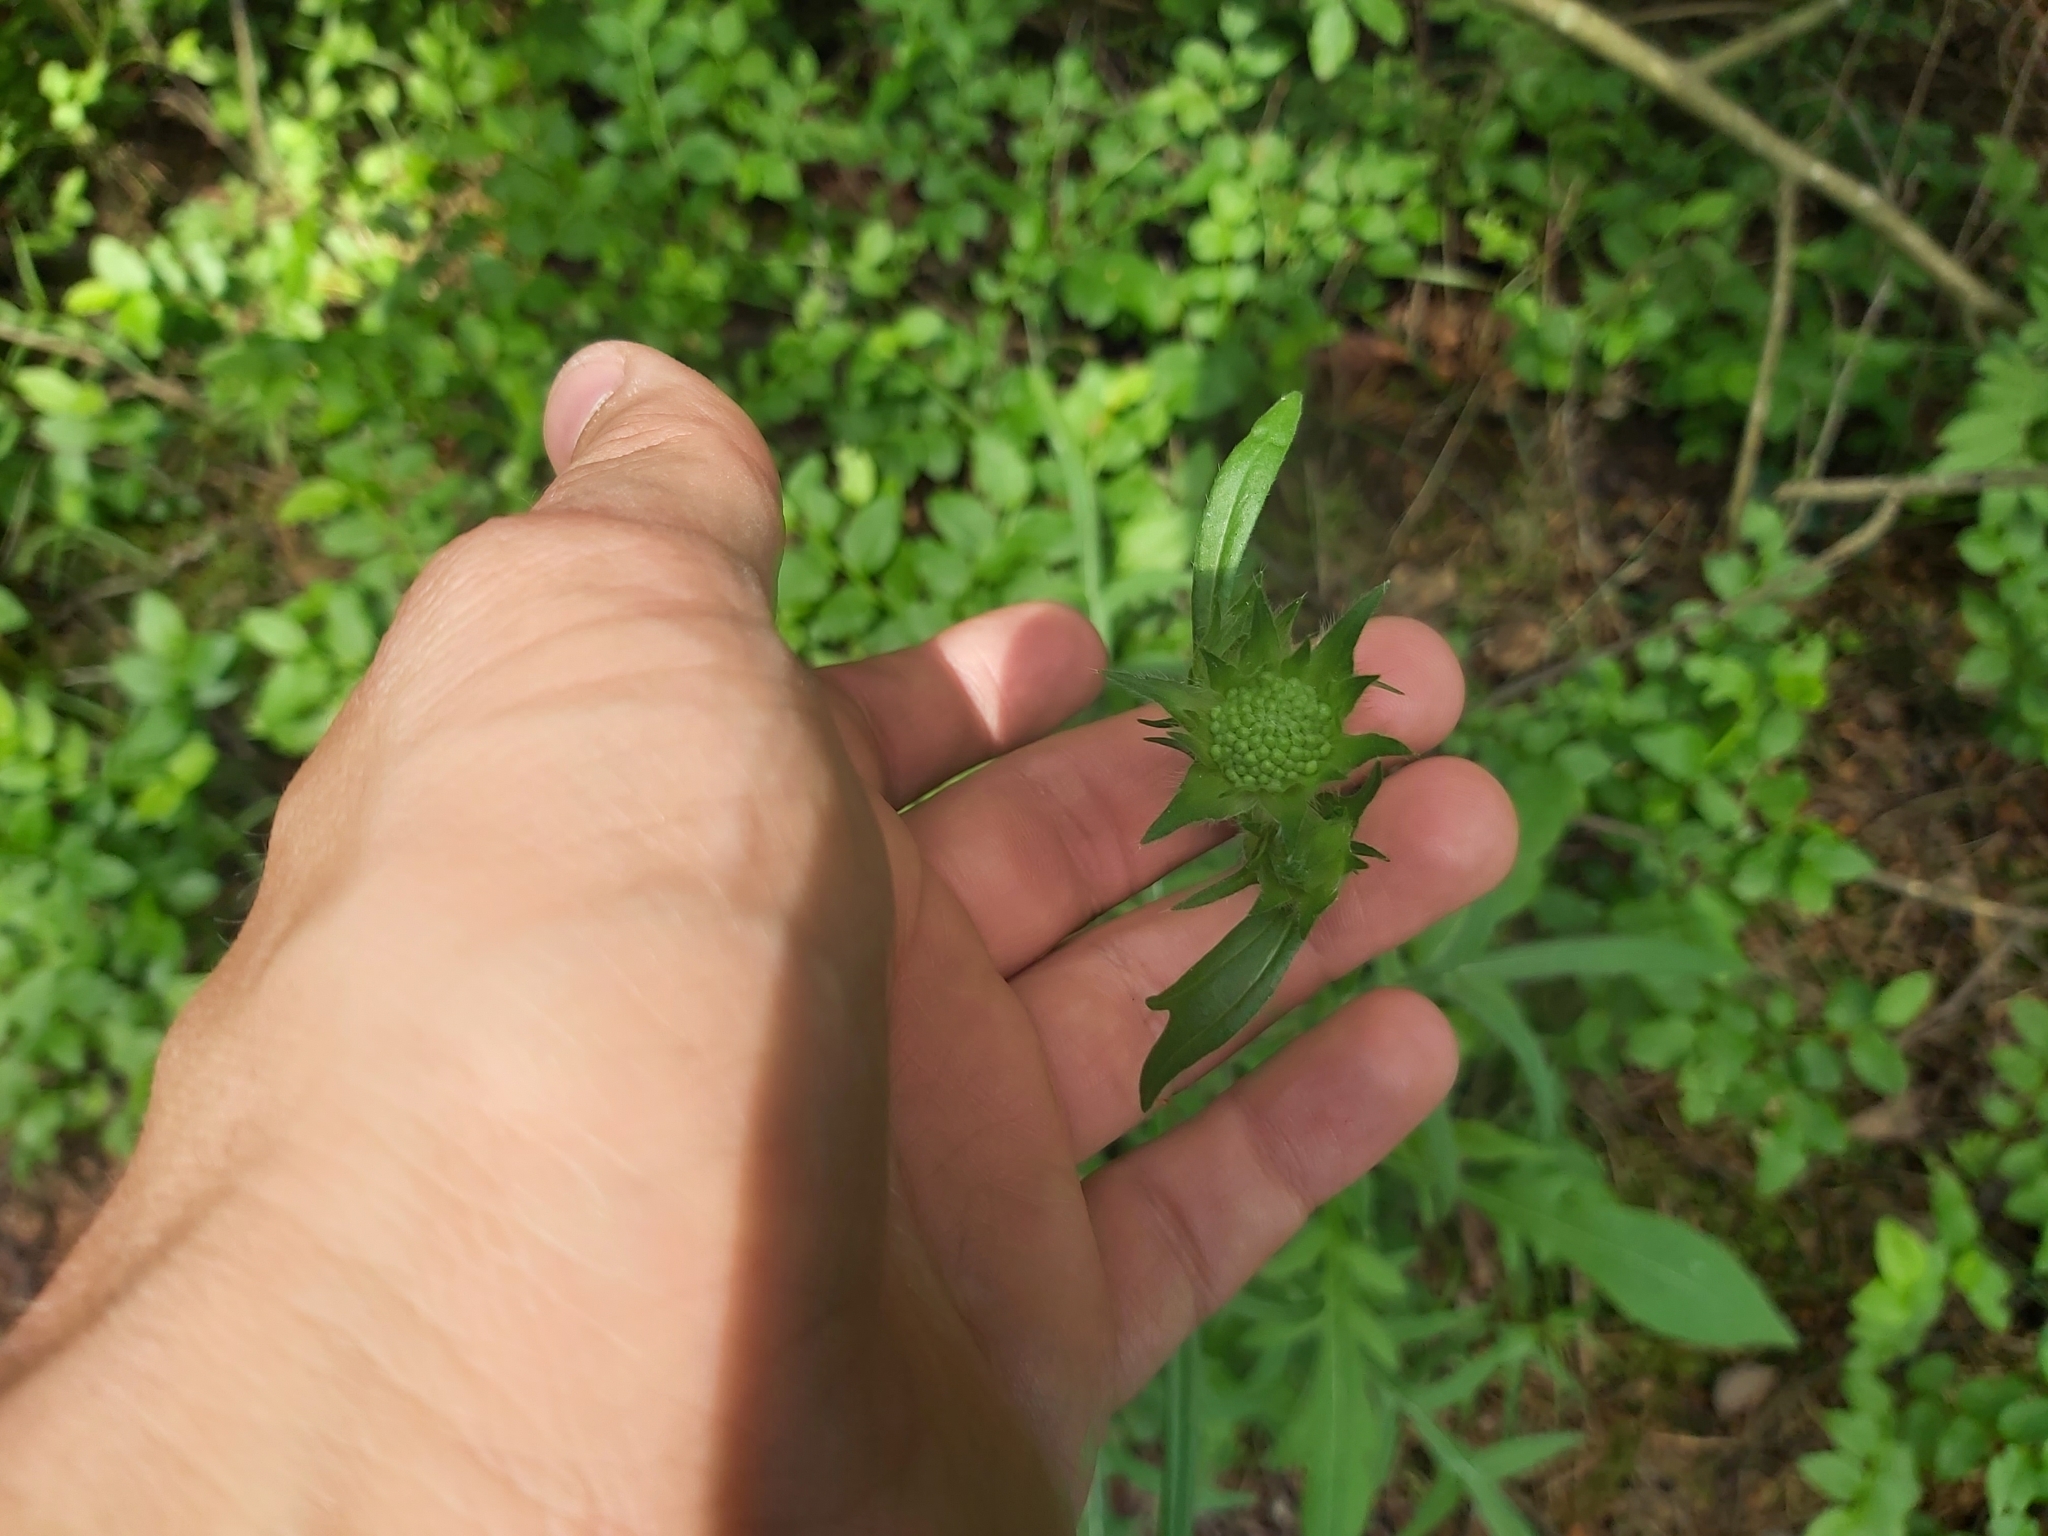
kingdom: Plantae
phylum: Tracheophyta
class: Magnoliopsida
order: Dipsacales
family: Caprifoliaceae
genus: Knautia
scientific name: Knautia arvensis
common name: Field scabiosa
